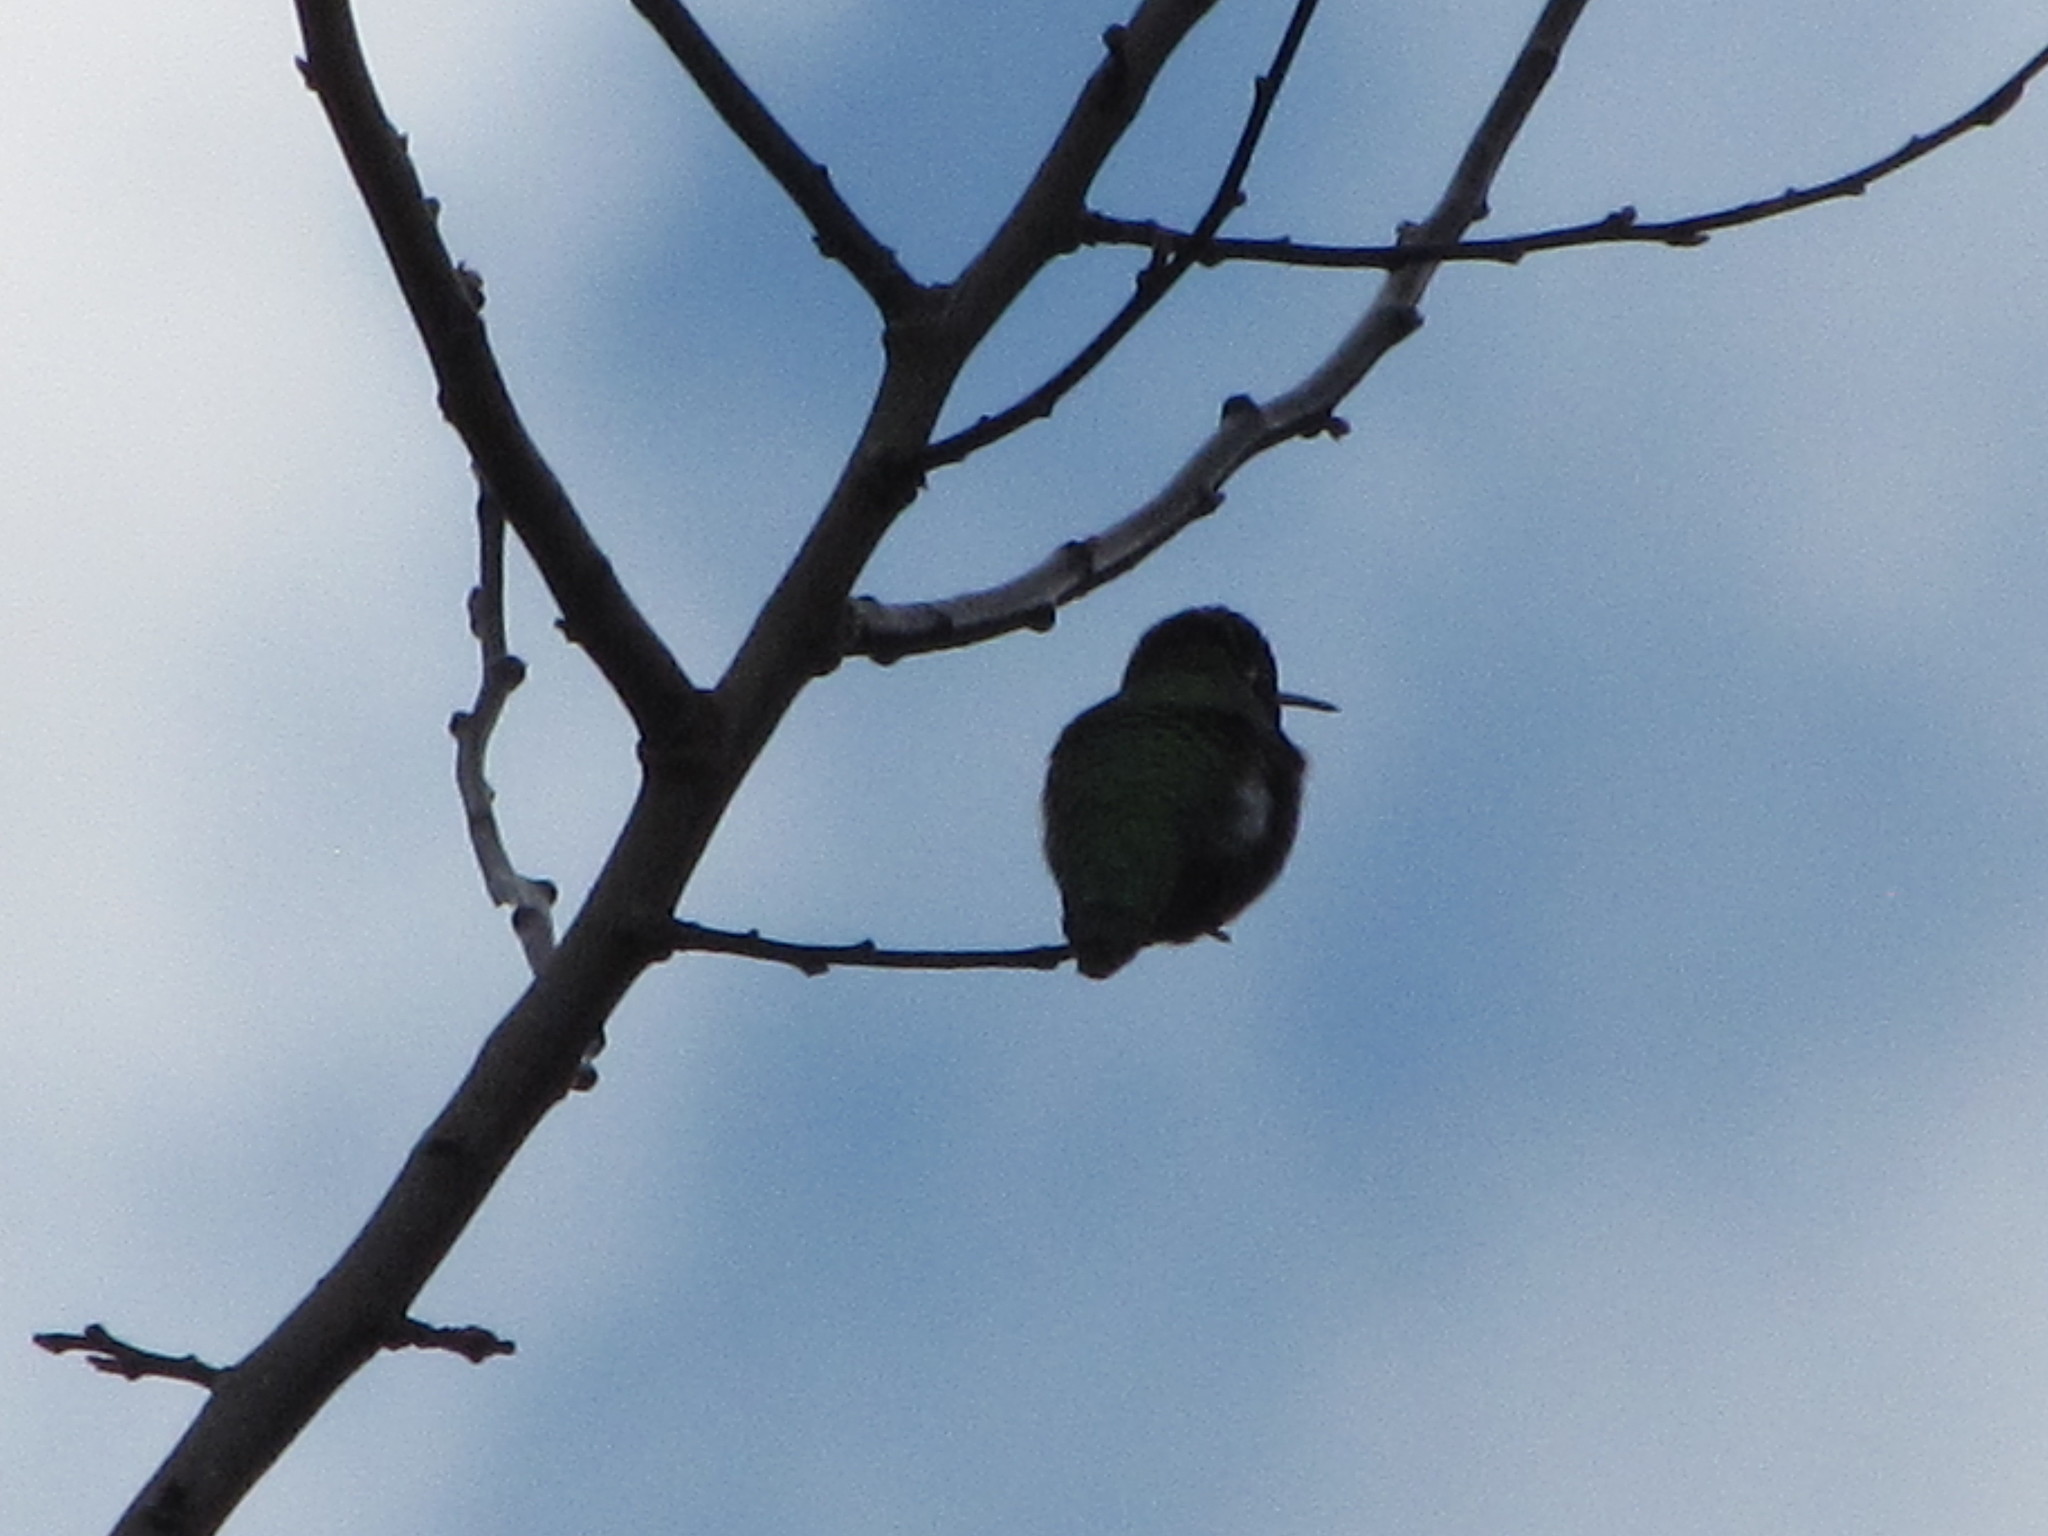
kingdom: Animalia
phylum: Chordata
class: Aves
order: Apodiformes
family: Trochilidae
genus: Calypte
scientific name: Calypte anna
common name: Anna's hummingbird
